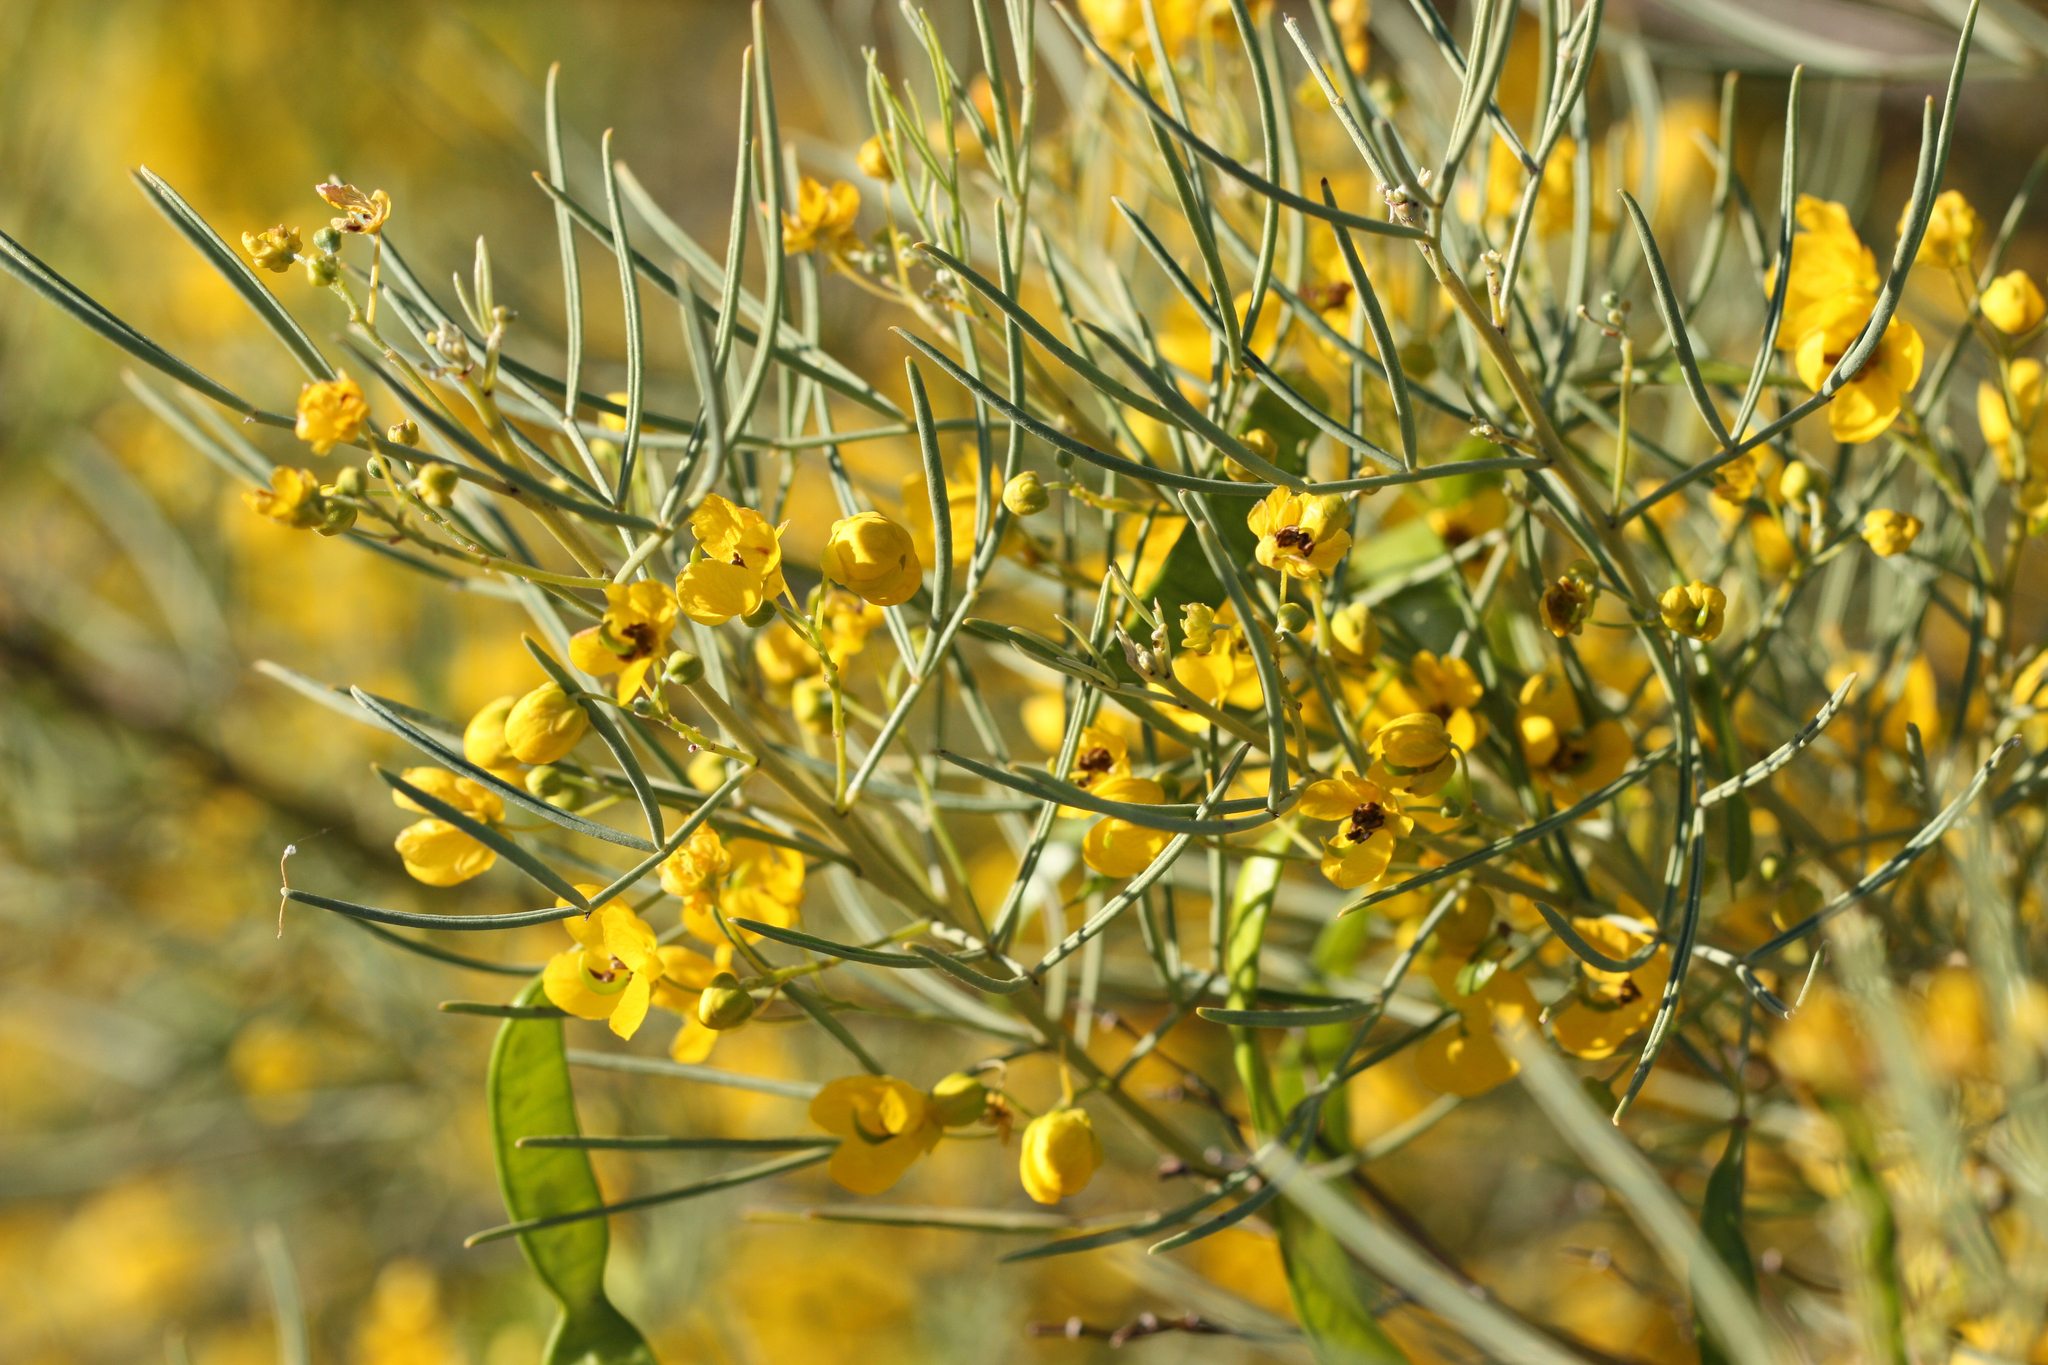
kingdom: Plantae
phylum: Tracheophyta
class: Magnoliopsida
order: Fabales
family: Fabaceae
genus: Senna
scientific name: Senna artemisioides
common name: Burnt-leaved acacia
